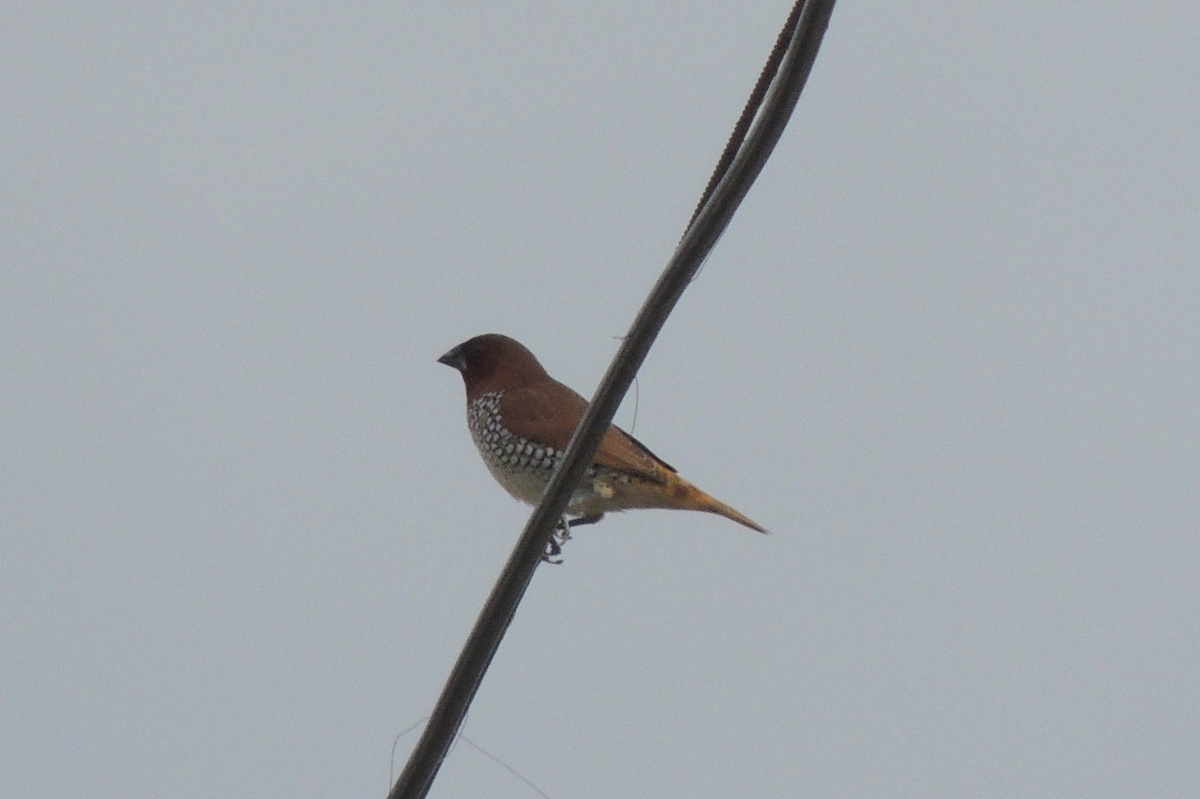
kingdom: Animalia
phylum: Chordata
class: Aves
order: Passeriformes
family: Estrildidae
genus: Lonchura
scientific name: Lonchura punctulata
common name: Scaly-breasted munia
